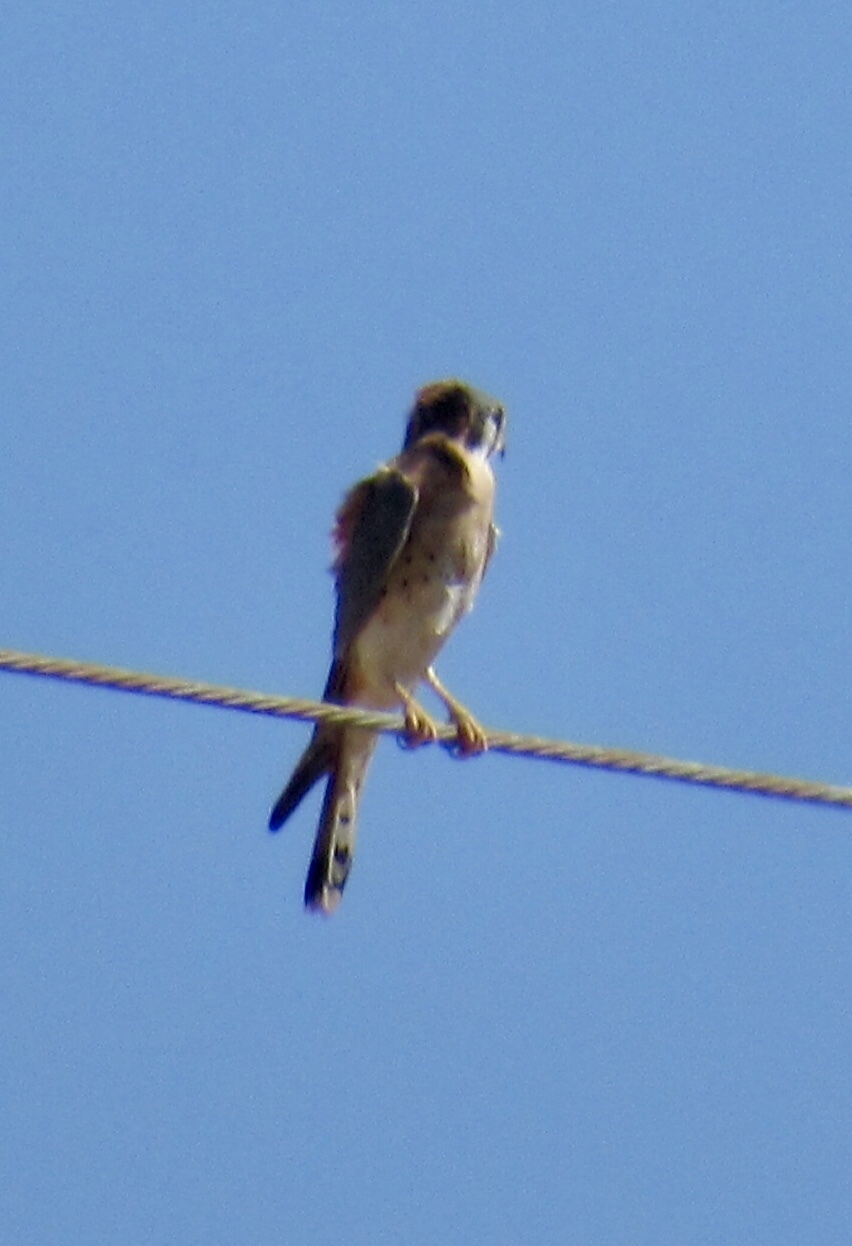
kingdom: Animalia
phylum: Chordata
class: Aves
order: Falconiformes
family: Falconidae
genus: Falco
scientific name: Falco sparverius
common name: American kestrel
